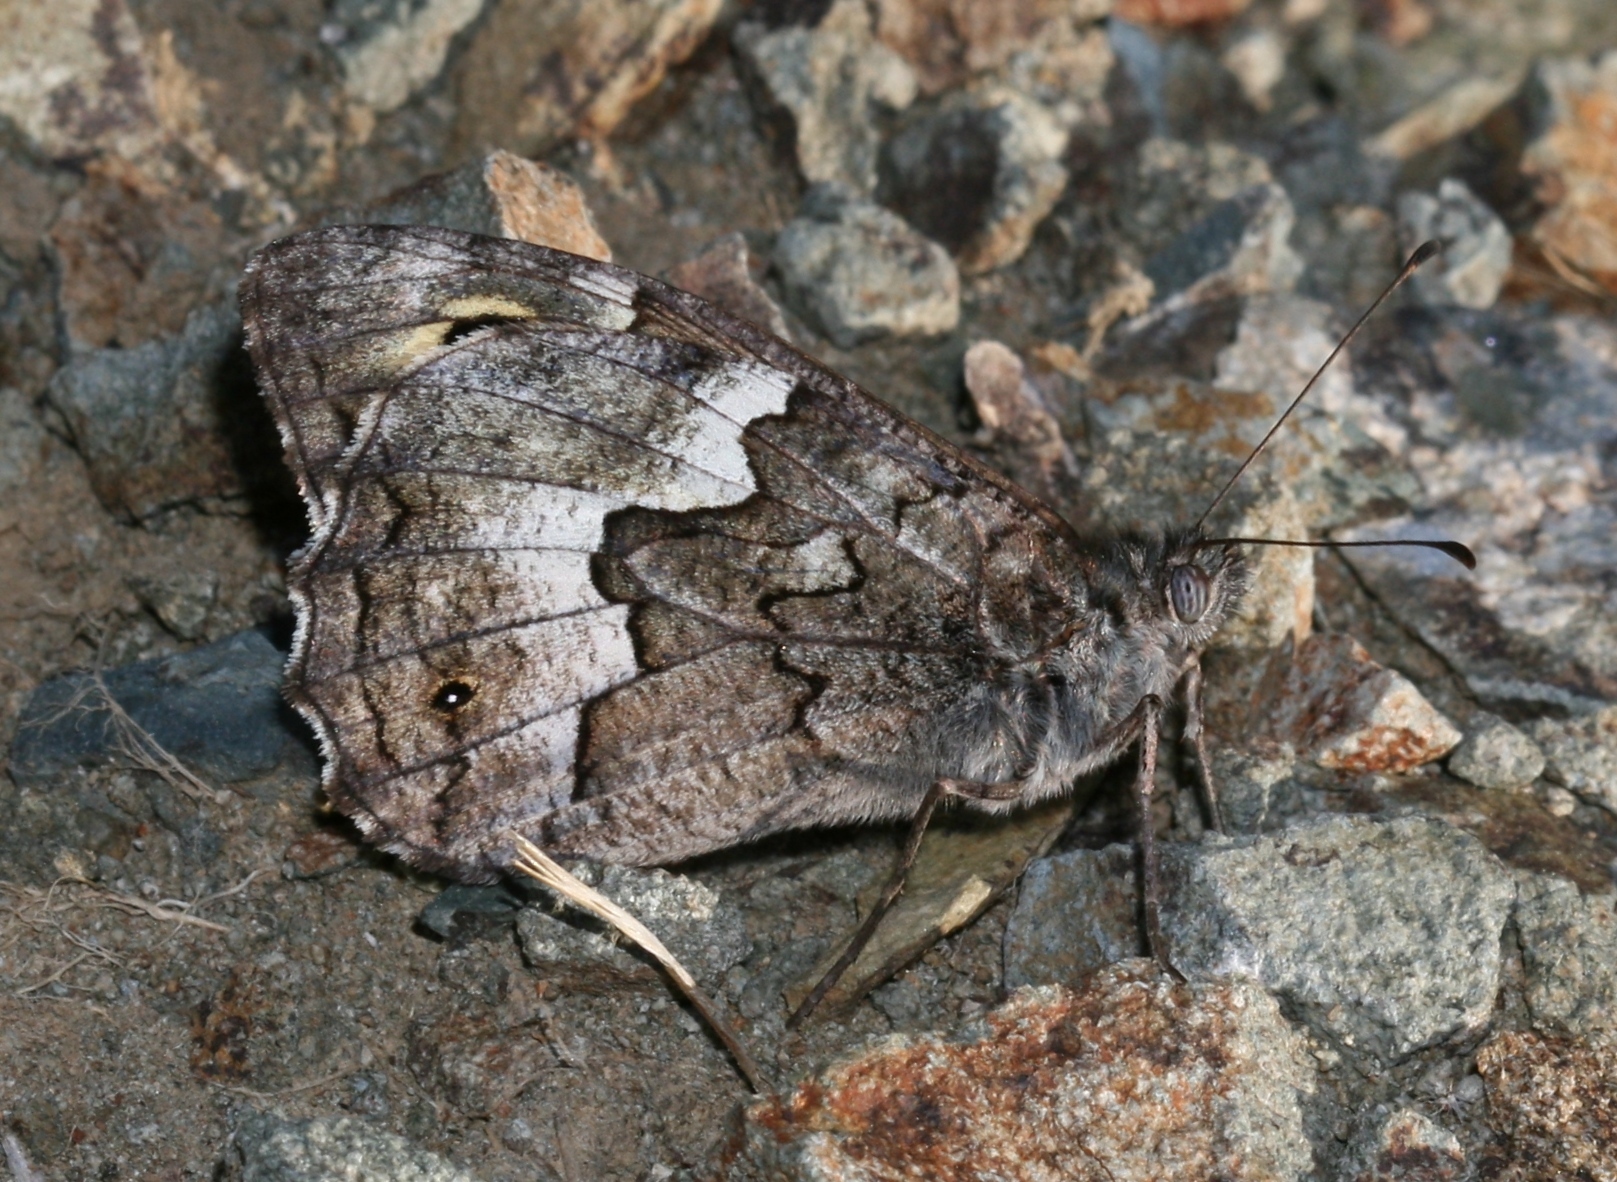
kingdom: Animalia
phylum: Arthropoda
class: Insecta
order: Lepidoptera
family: Nymphalidae
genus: Hipparchia
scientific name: Hipparchia cypriensis
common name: Cyprus grayling
